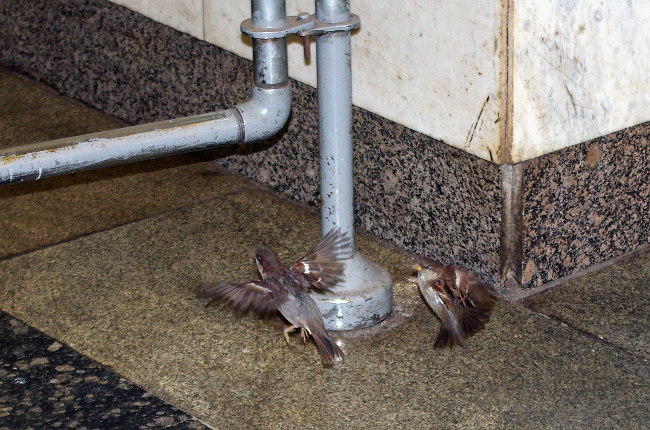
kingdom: Animalia
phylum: Chordata
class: Aves
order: Passeriformes
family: Passeridae
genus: Passer
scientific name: Passer domesticus
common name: House sparrow
